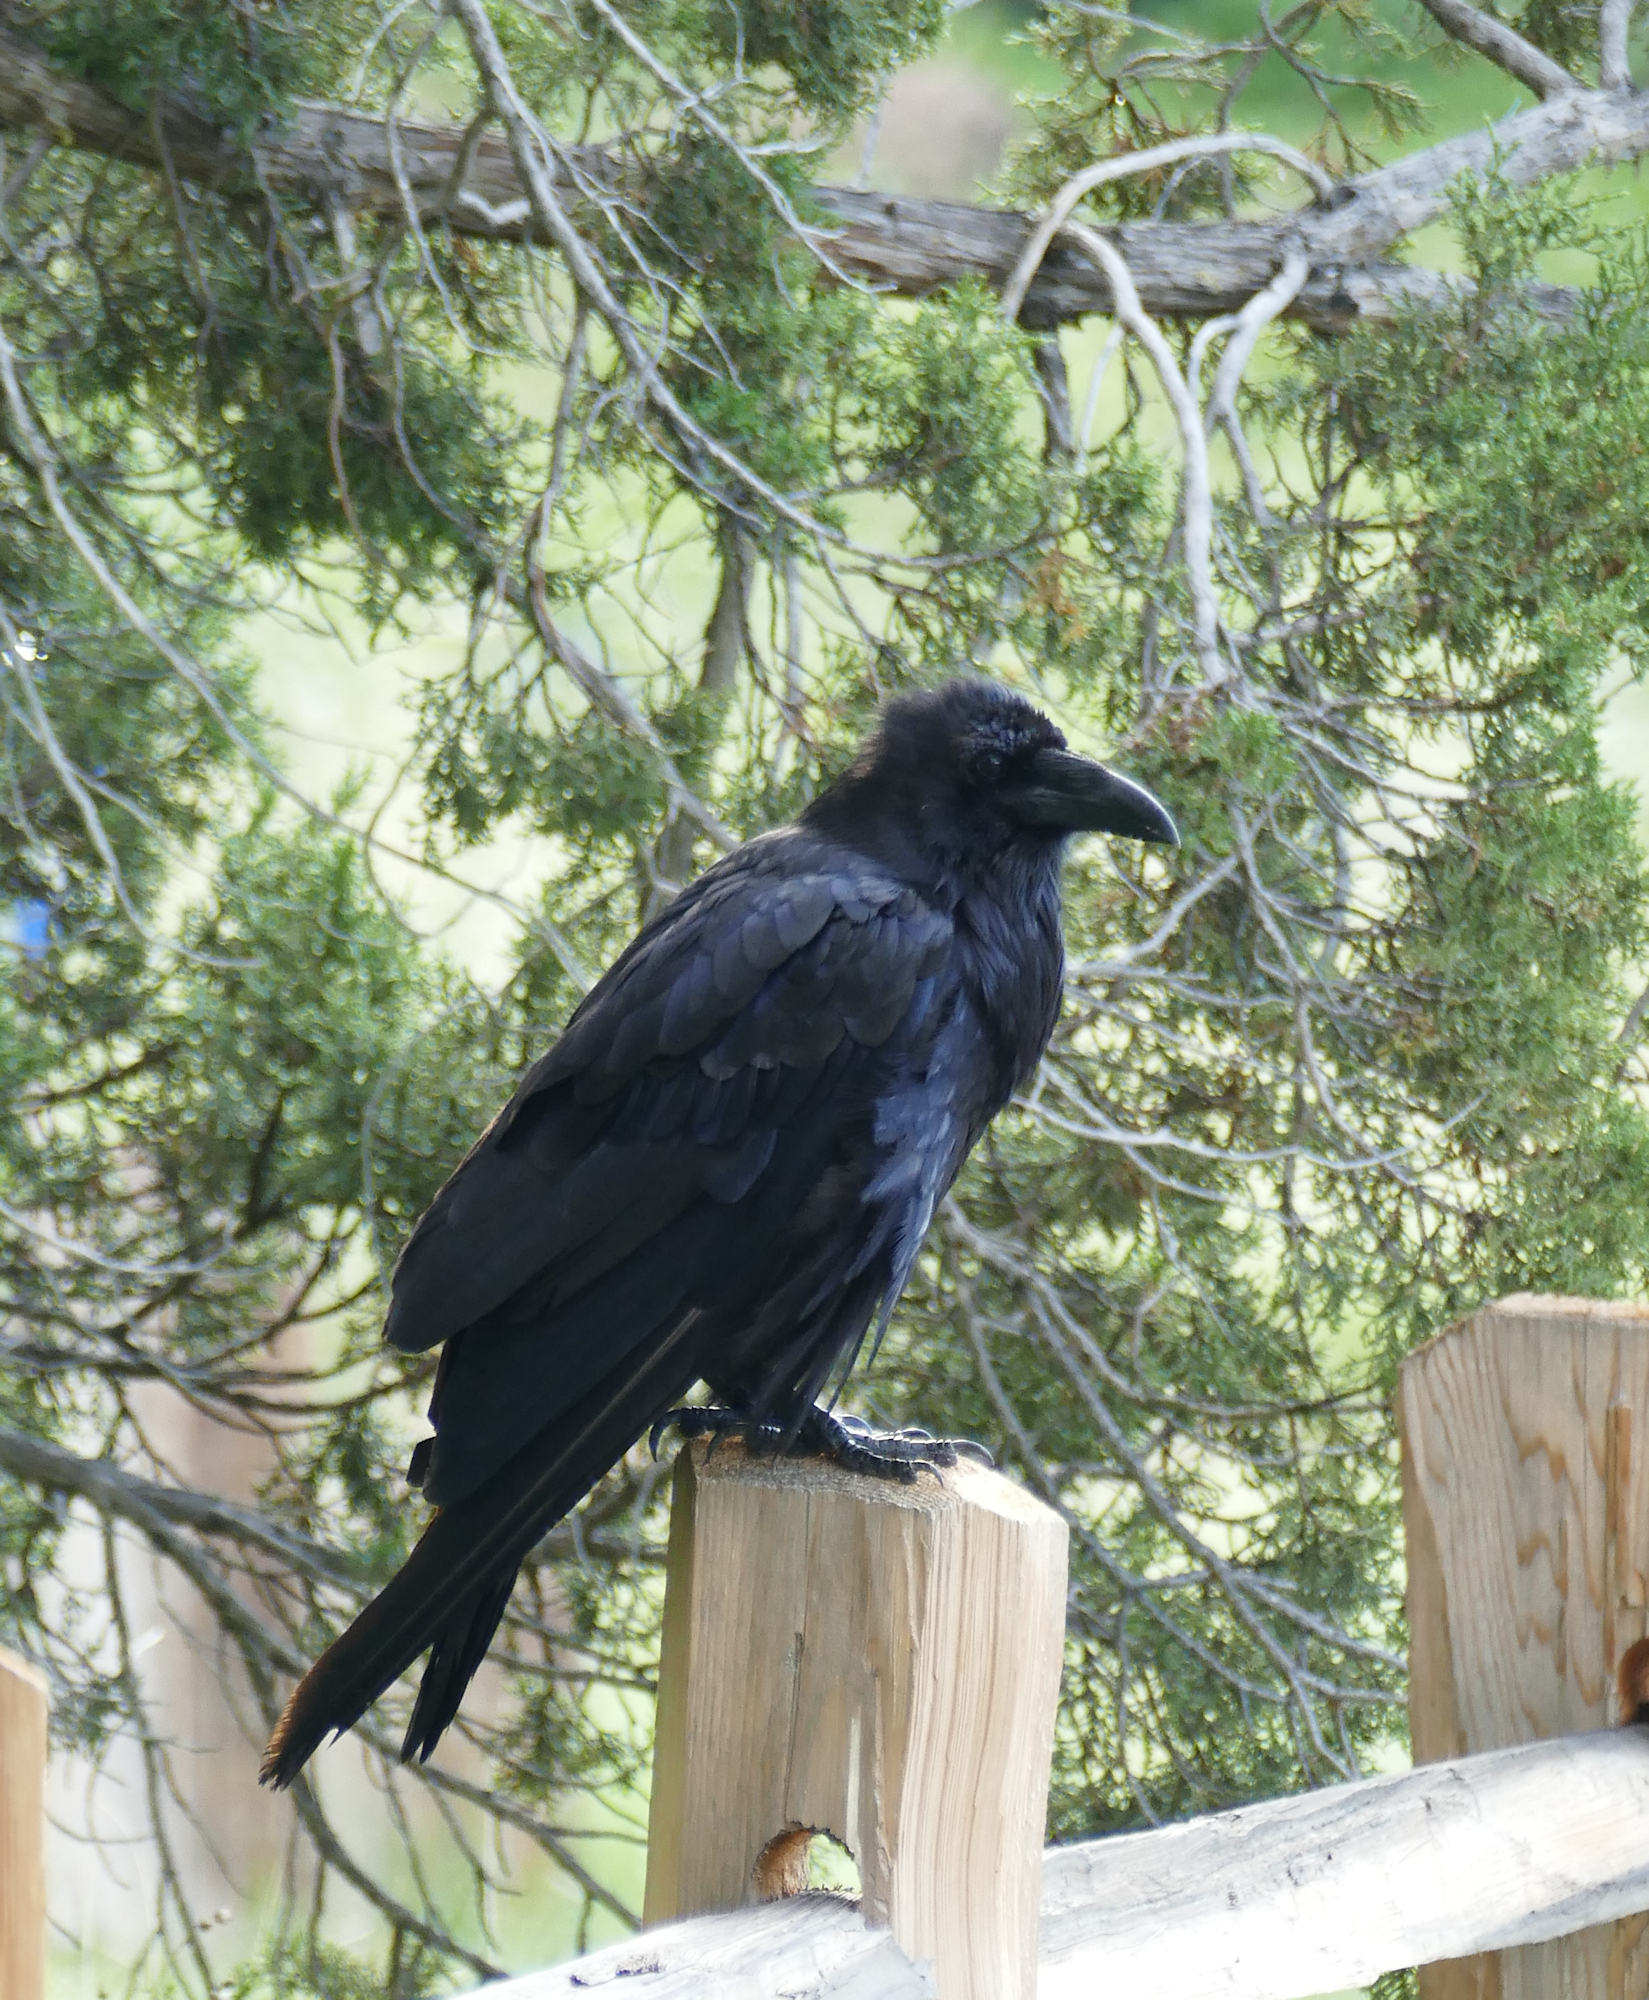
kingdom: Animalia
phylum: Chordata
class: Aves
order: Passeriformes
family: Corvidae
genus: Corvus
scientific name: Corvus corax
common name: Common raven
